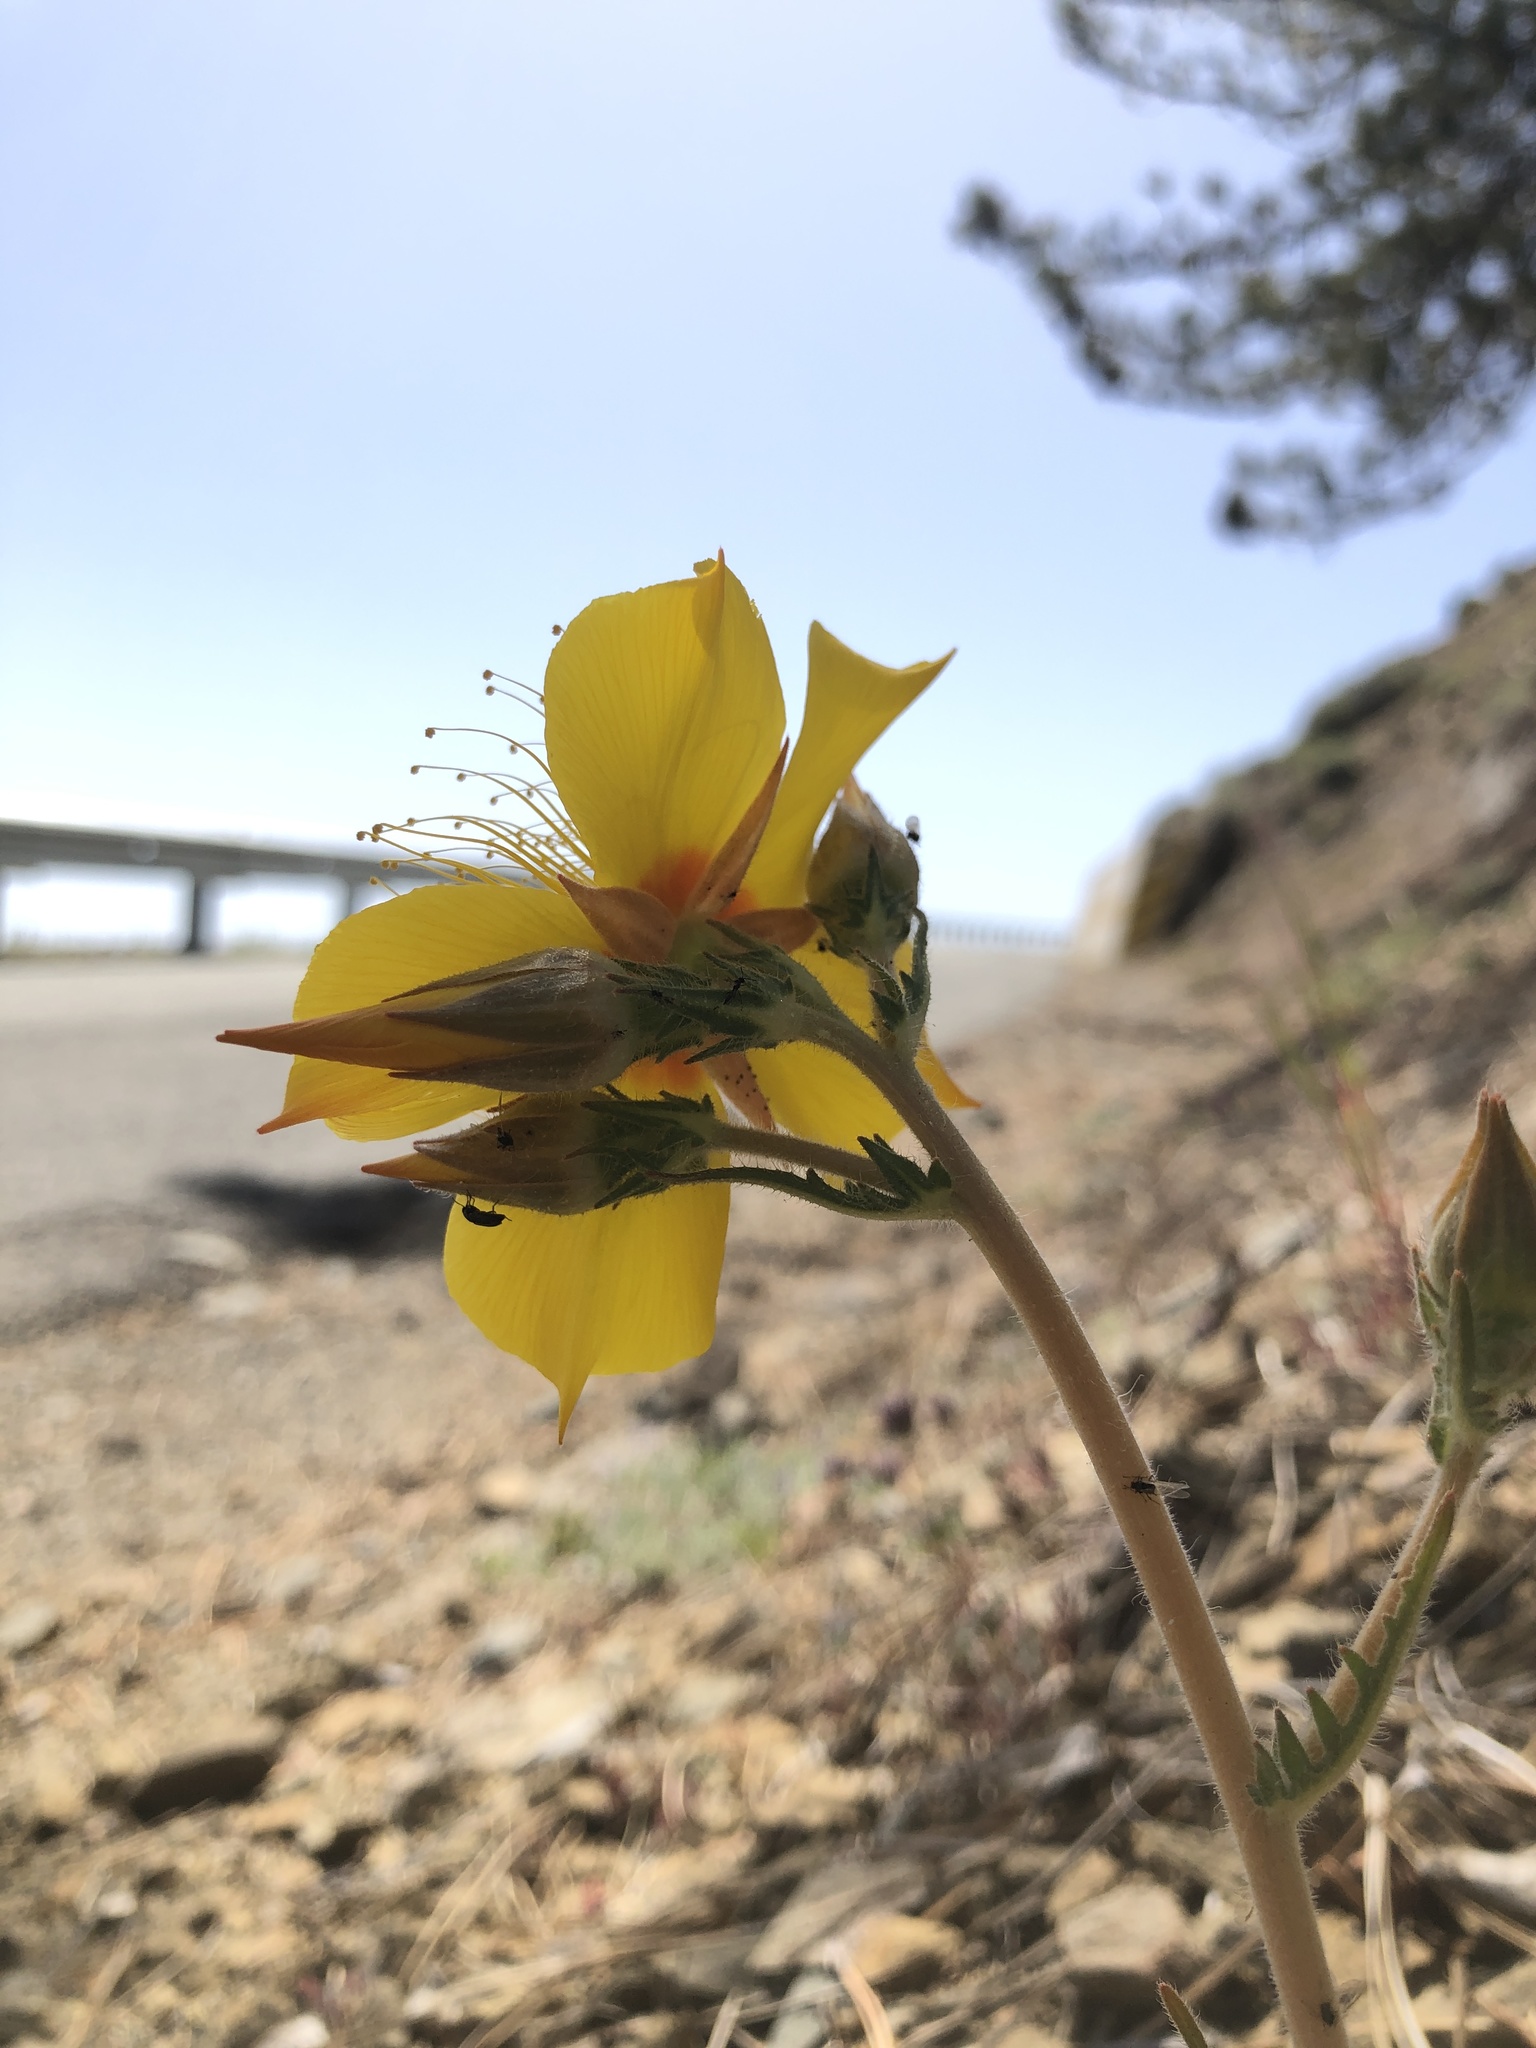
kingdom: Plantae
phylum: Tracheophyta
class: Magnoliopsida
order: Cornales
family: Loasaceae
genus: Mentzelia
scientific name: Mentzelia lindleyi
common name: Golden bartonia
